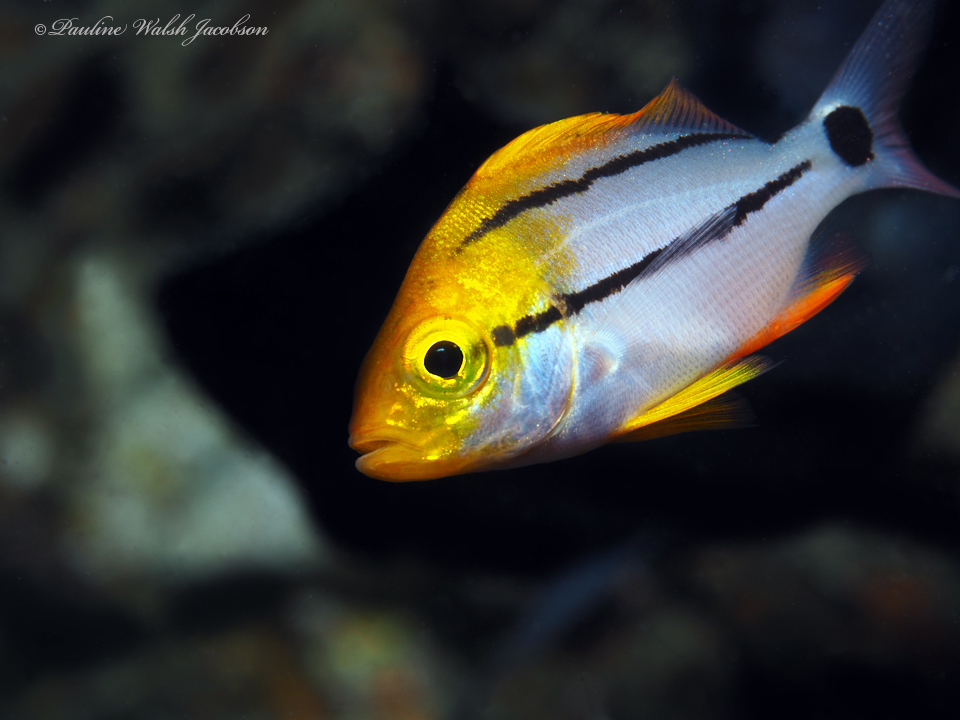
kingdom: Animalia
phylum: Chordata
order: Perciformes
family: Haemulidae
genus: Anisotremus
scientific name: Anisotremus virginicus
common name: Porkfish
